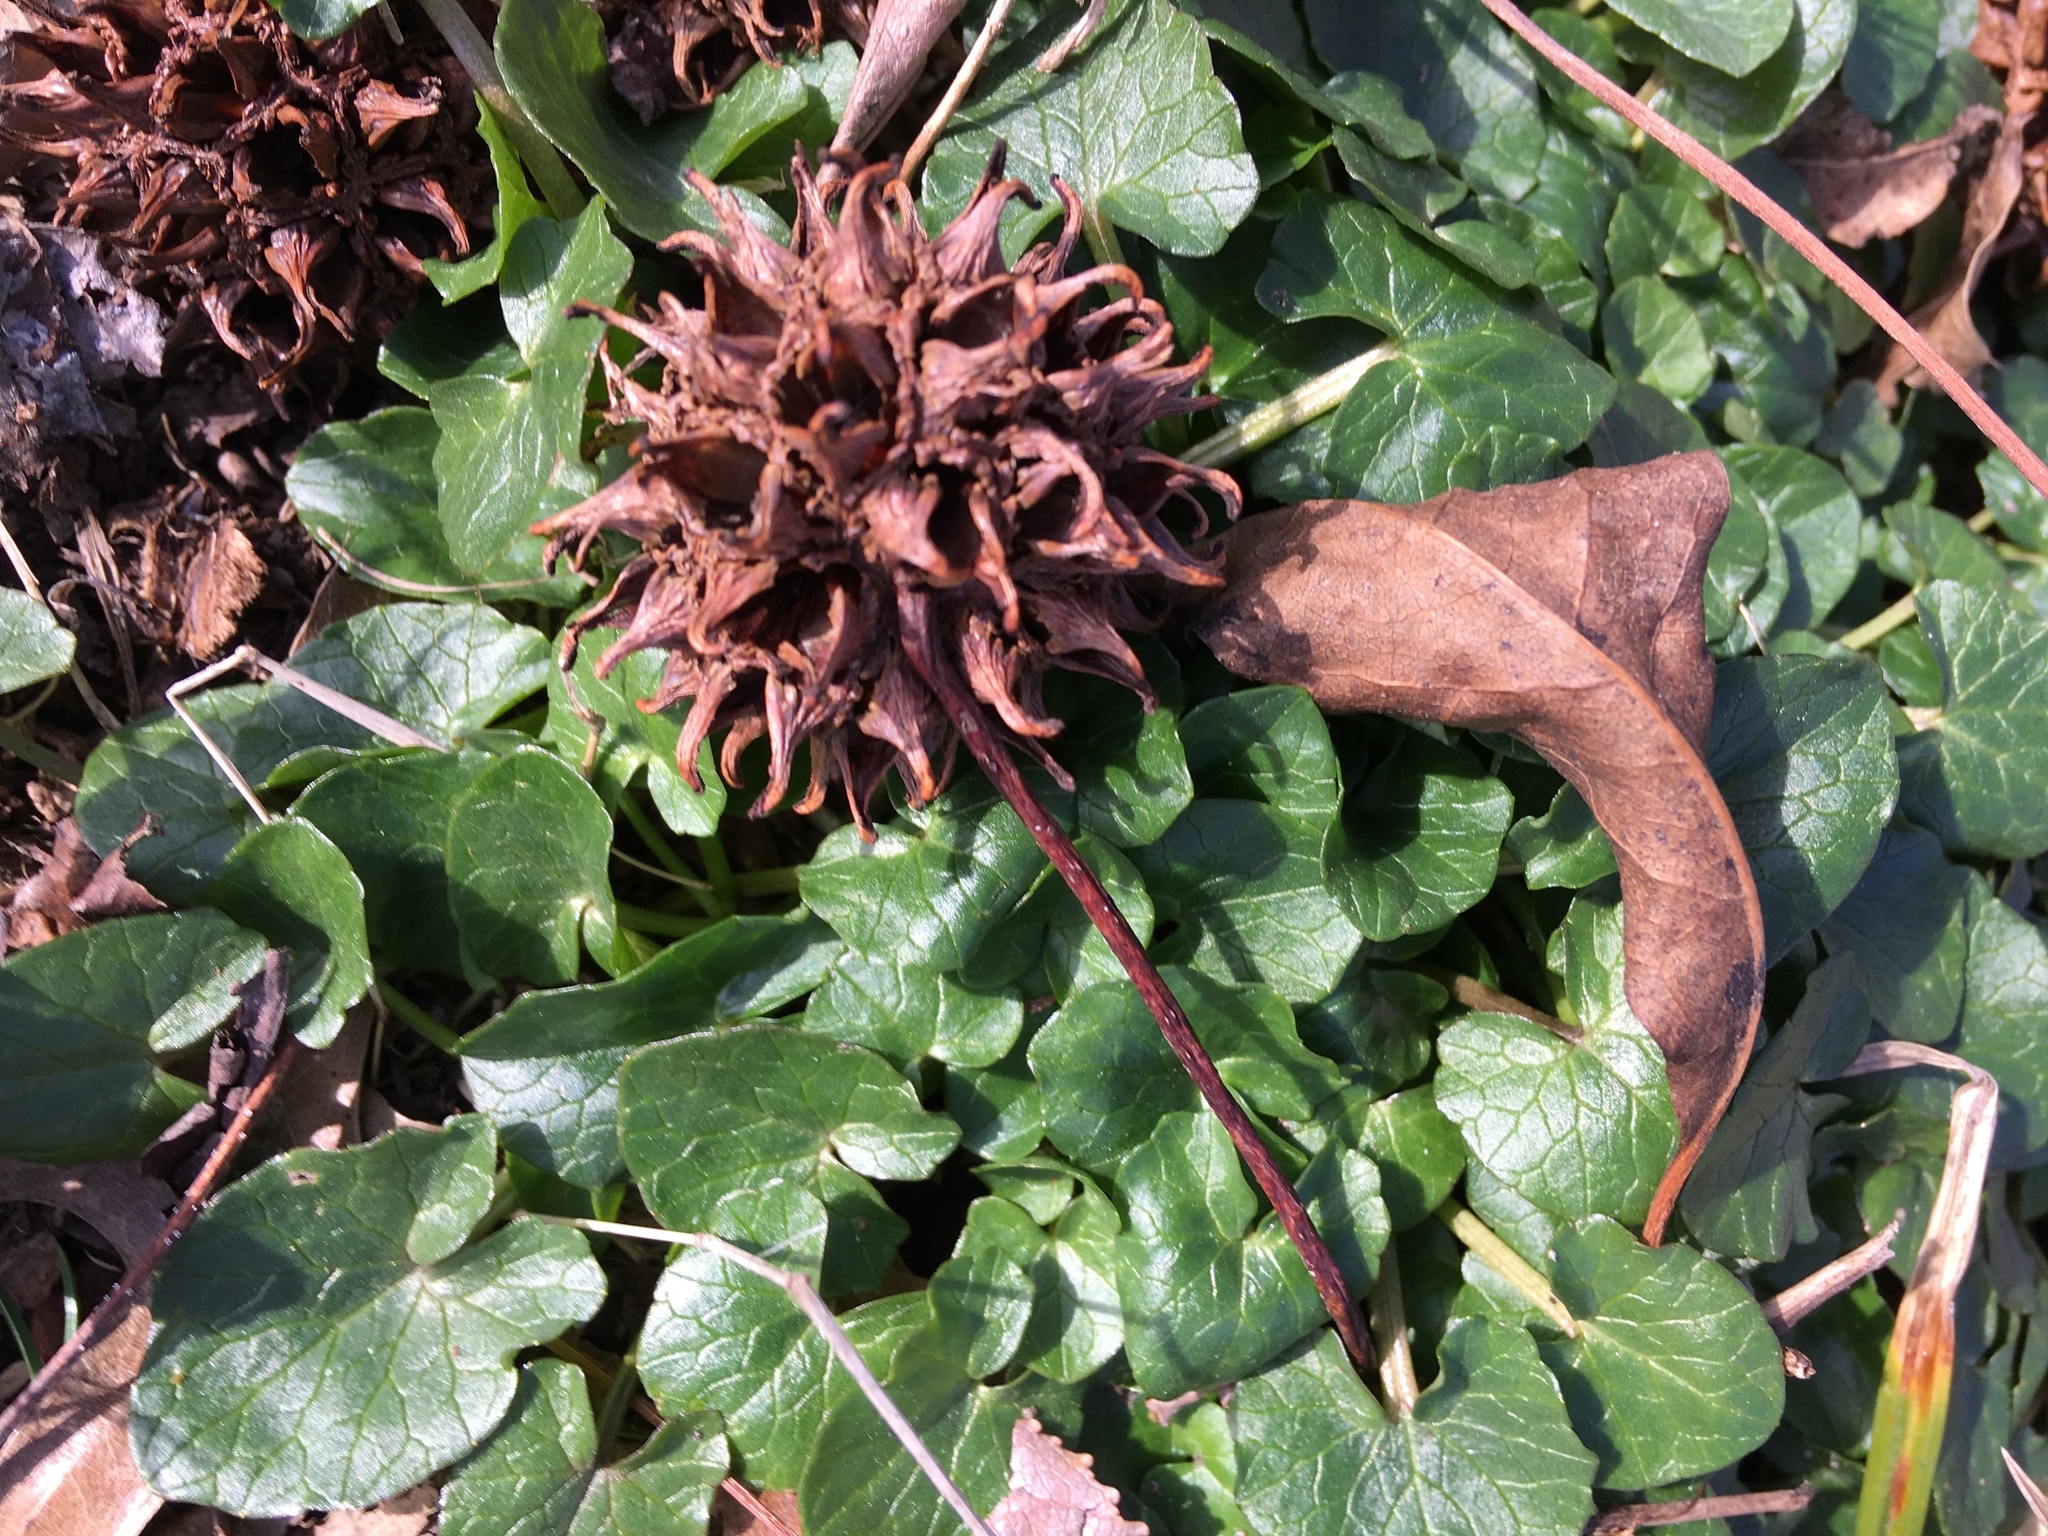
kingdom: Plantae
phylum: Tracheophyta
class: Magnoliopsida
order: Ranunculales
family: Ranunculaceae
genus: Ficaria
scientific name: Ficaria verna
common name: Lesser celandine
